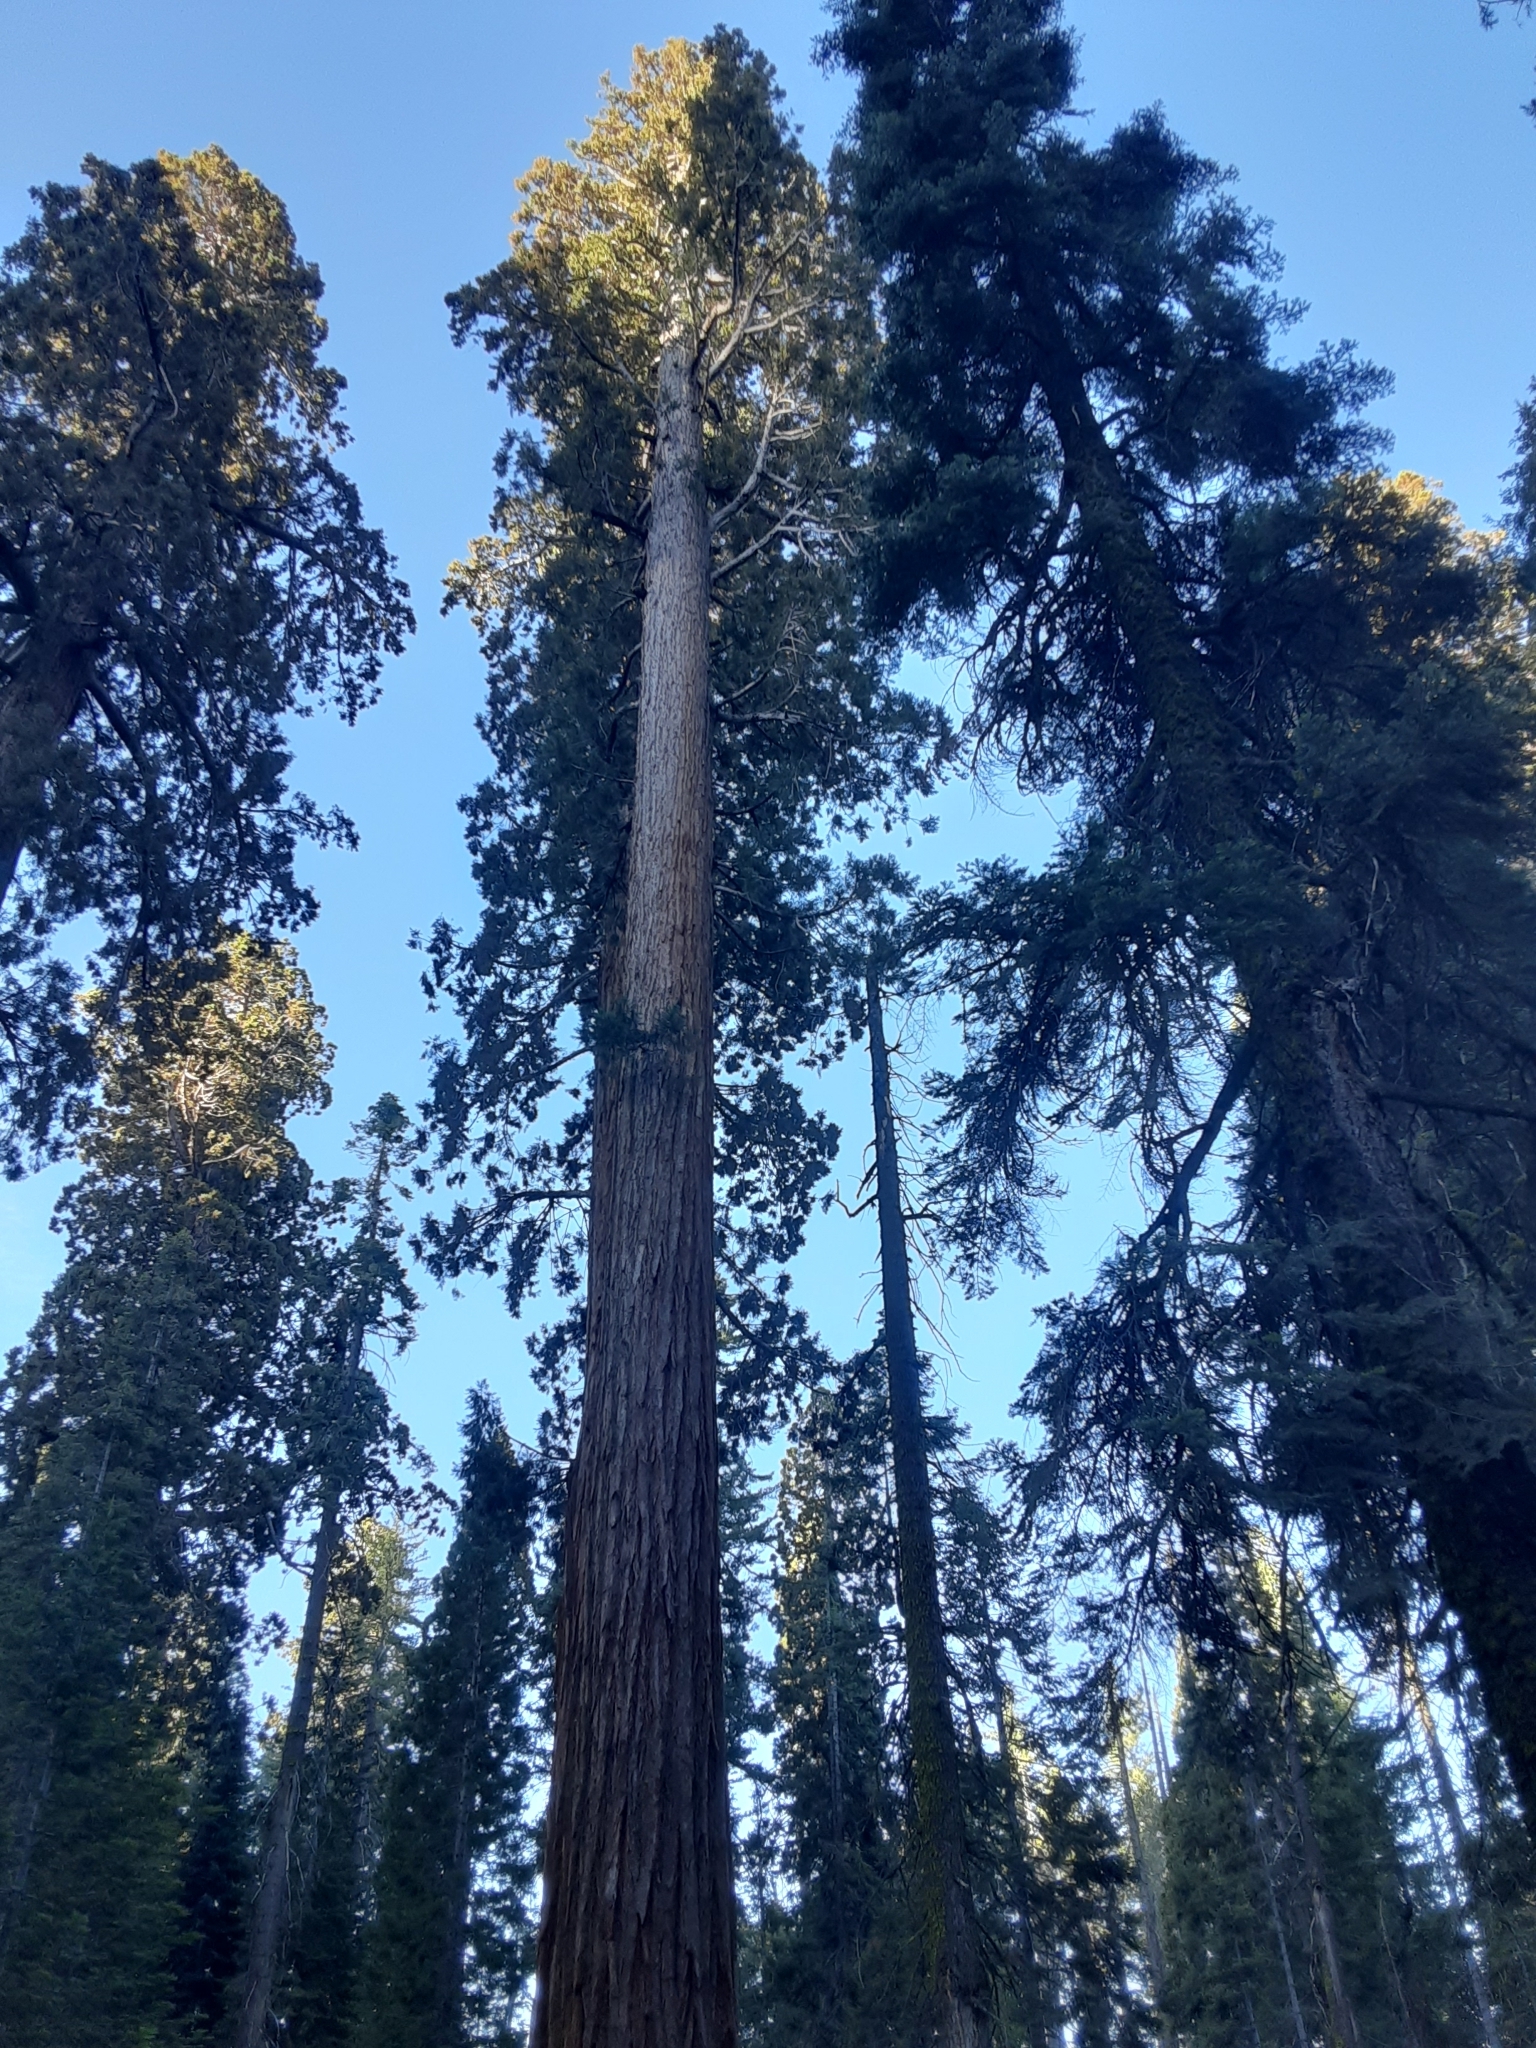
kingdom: Plantae
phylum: Tracheophyta
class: Pinopsida
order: Pinales
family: Cupressaceae
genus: Sequoiadendron
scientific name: Sequoiadendron giganteum
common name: Wellingtonia
